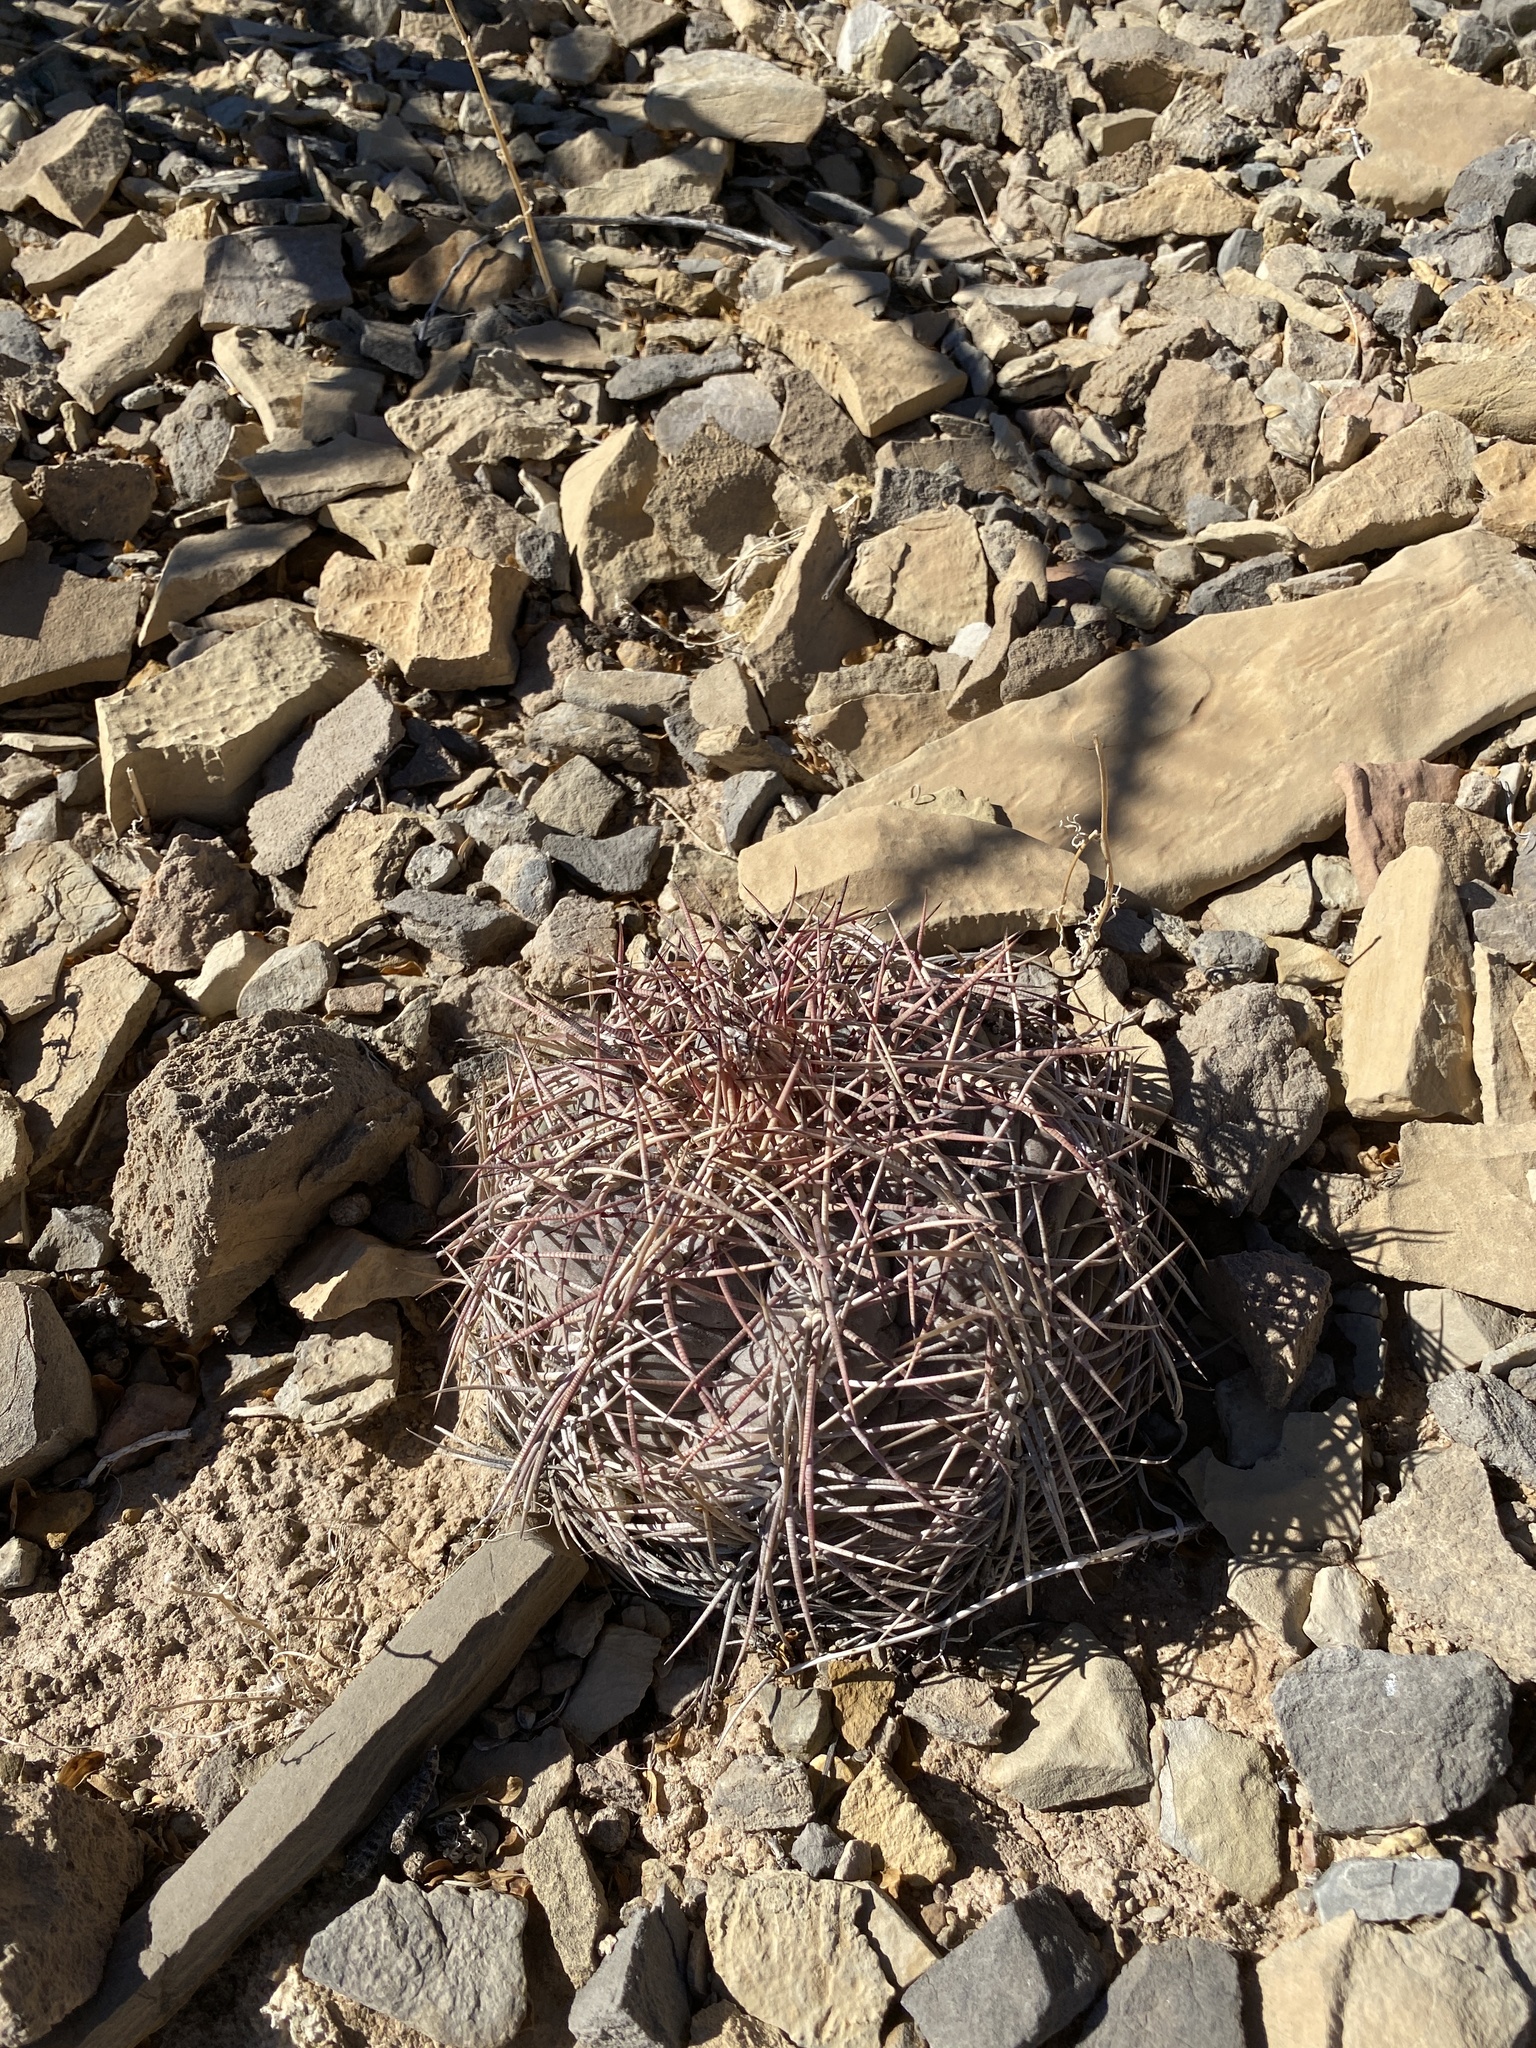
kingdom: Plantae
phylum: Tracheophyta
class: Magnoliopsida
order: Caryophyllales
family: Cactaceae
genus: Echinocactus
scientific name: Echinocactus horizonthalonius
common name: Devilshead
